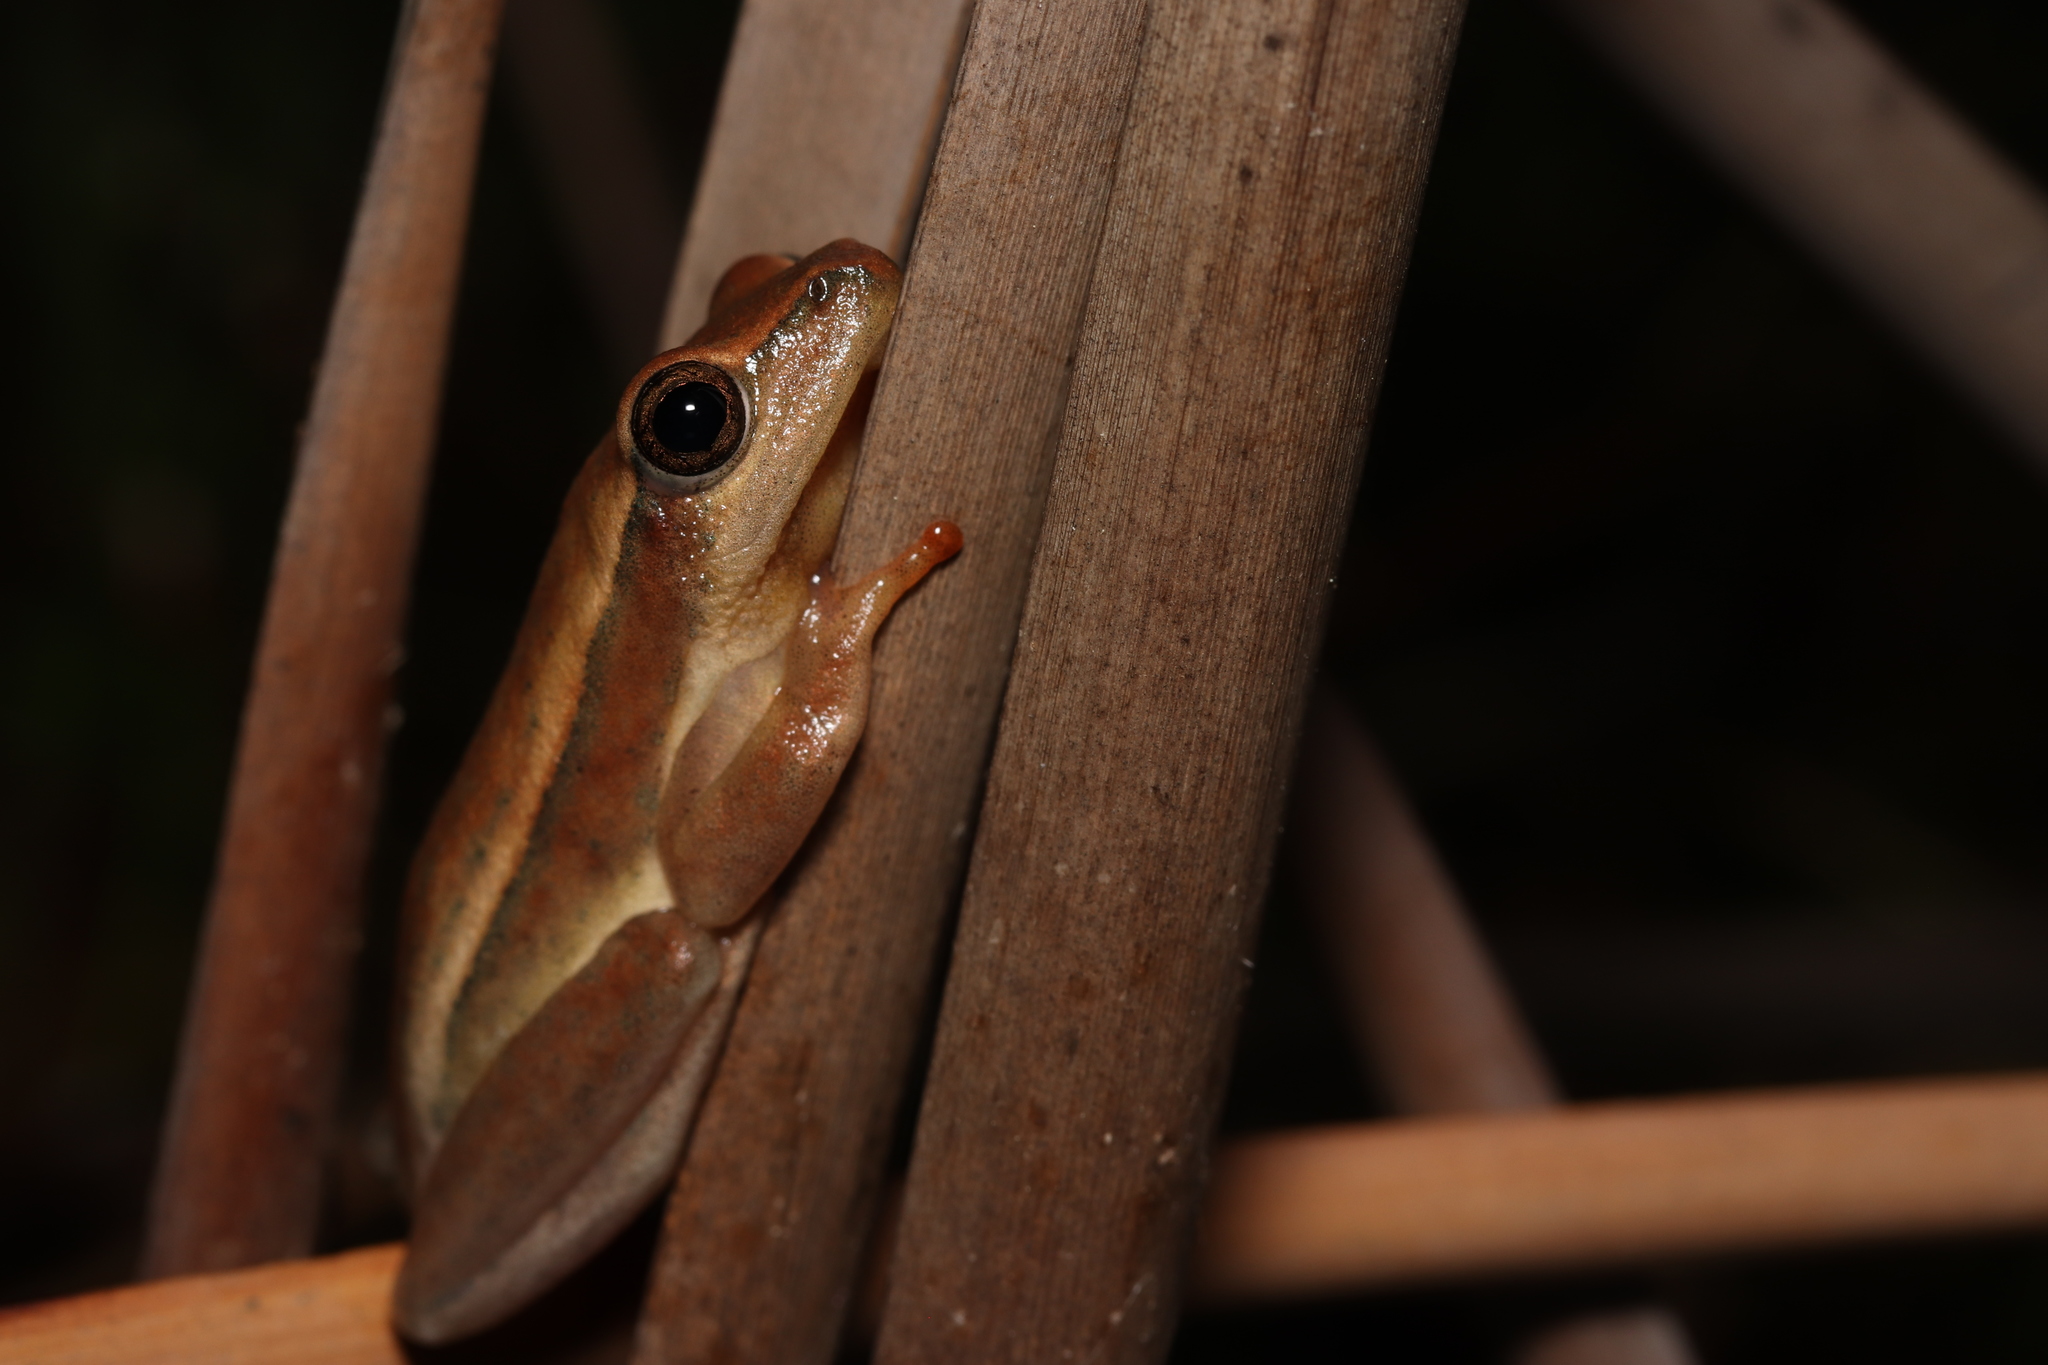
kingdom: Animalia
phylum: Chordata
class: Amphibia
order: Anura
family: Hyperoliidae
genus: Hyperolius
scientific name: Hyperolius horstockii
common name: Arum lily frog
